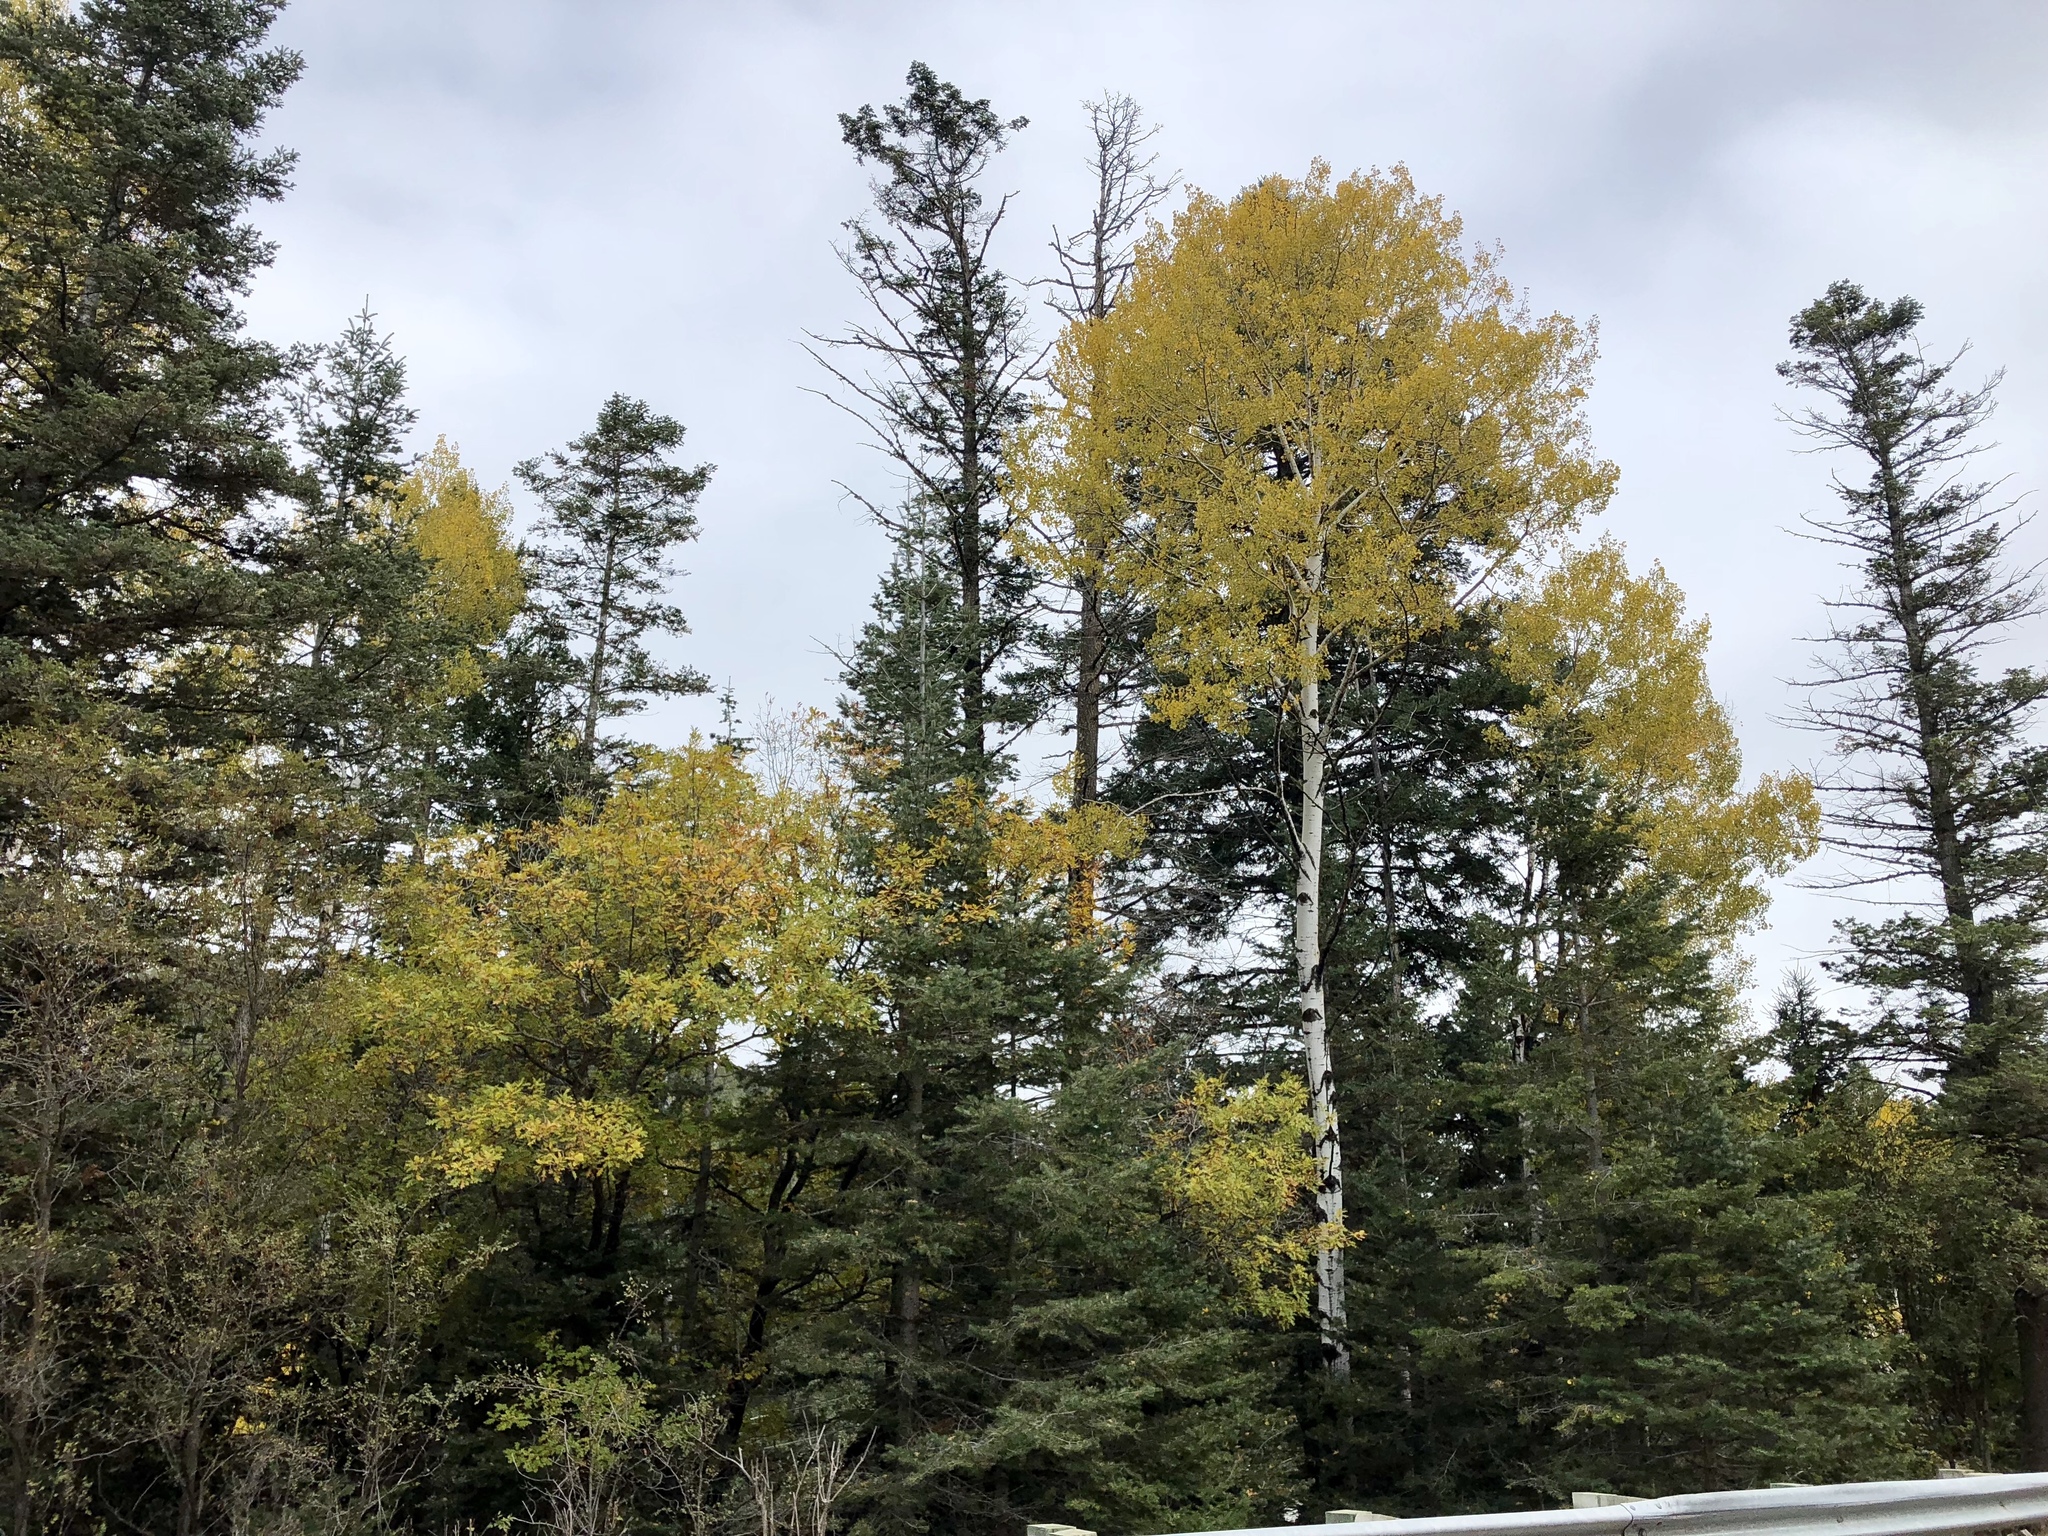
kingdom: Plantae
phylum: Tracheophyta
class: Magnoliopsida
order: Malpighiales
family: Salicaceae
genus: Populus
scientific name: Populus tremuloides
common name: Quaking aspen
